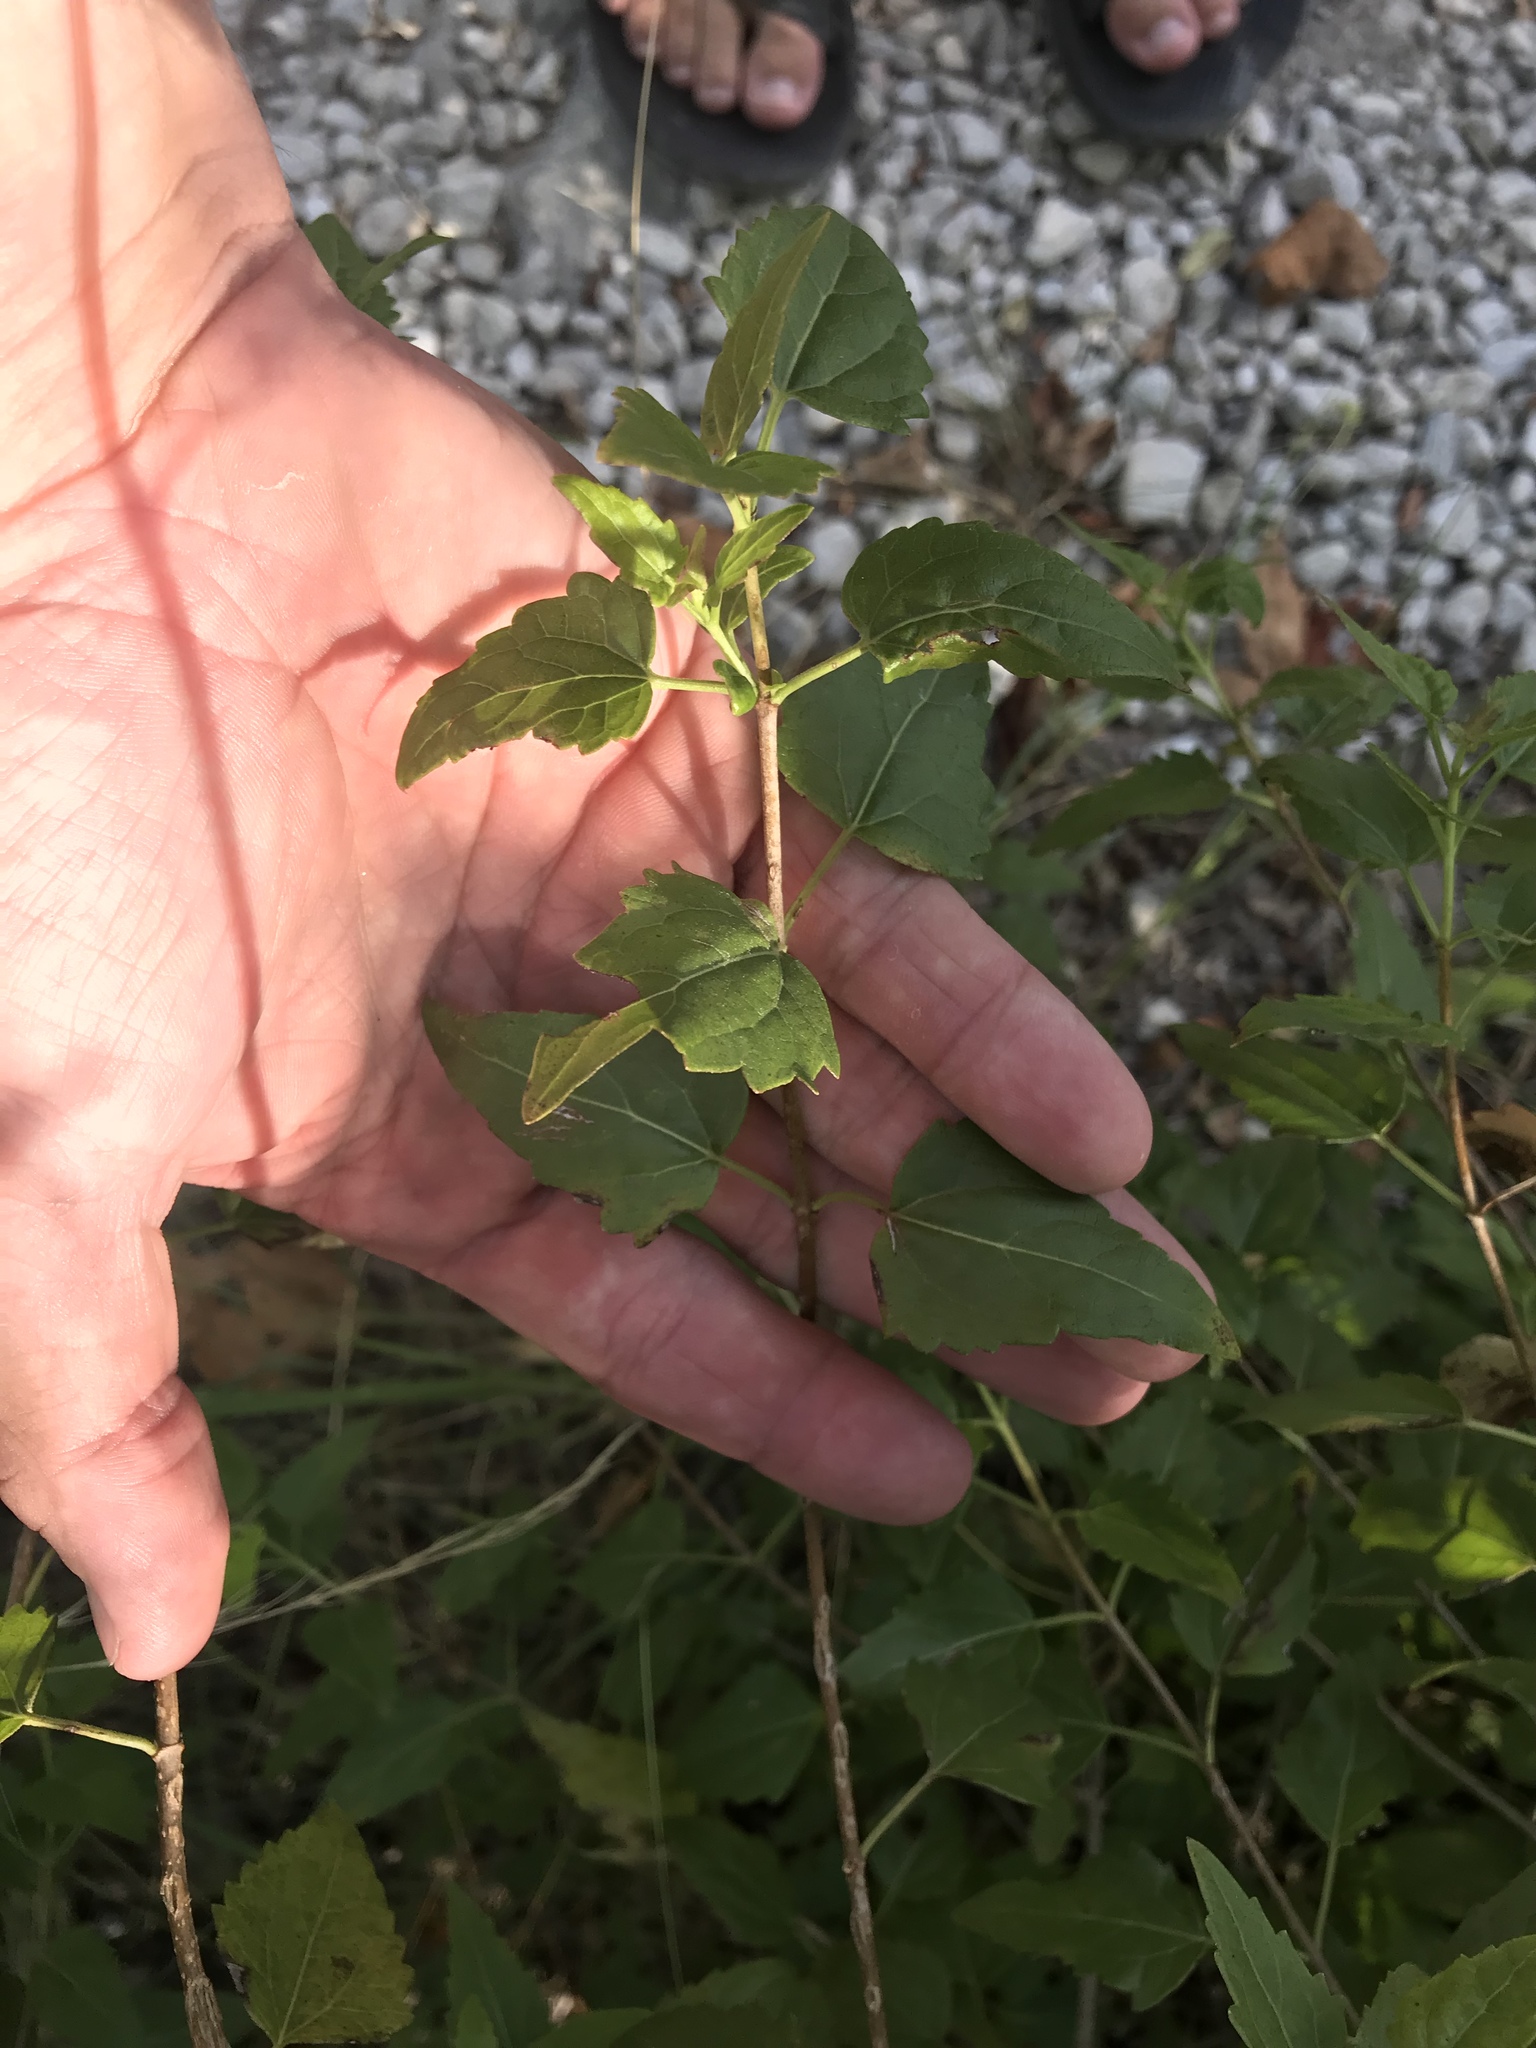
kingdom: Plantae
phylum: Tracheophyta
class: Magnoliopsida
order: Asterales
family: Asteraceae
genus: Ageratina
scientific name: Ageratina havanensis
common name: Havana snakeroot
